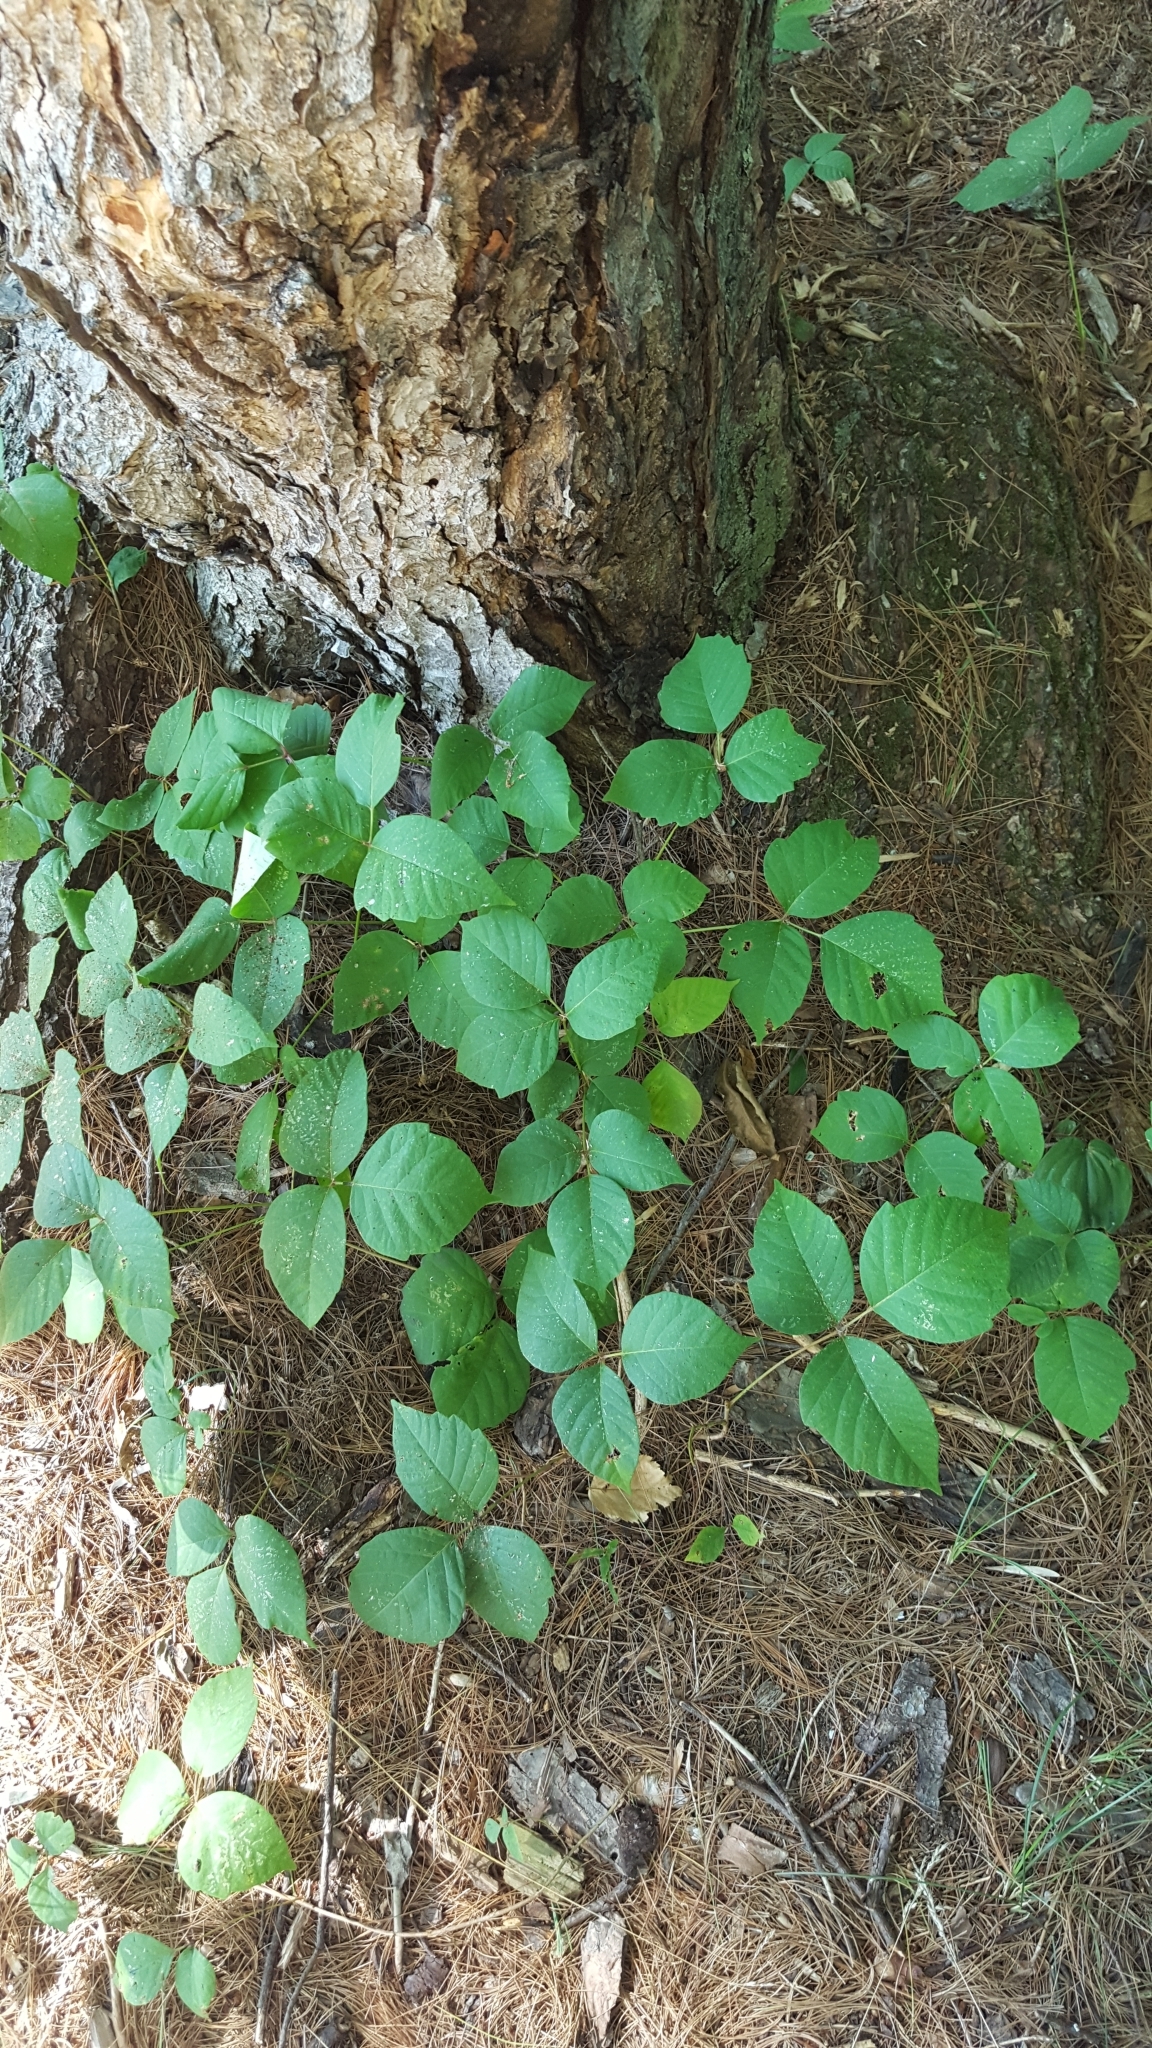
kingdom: Plantae
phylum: Tracheophyta
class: Magnoliopsida
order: Sapindales
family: Anacardiaceae
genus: Toxicodendron
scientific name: Toxicodendron rydbergii
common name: Rydberg's poison-ivy
